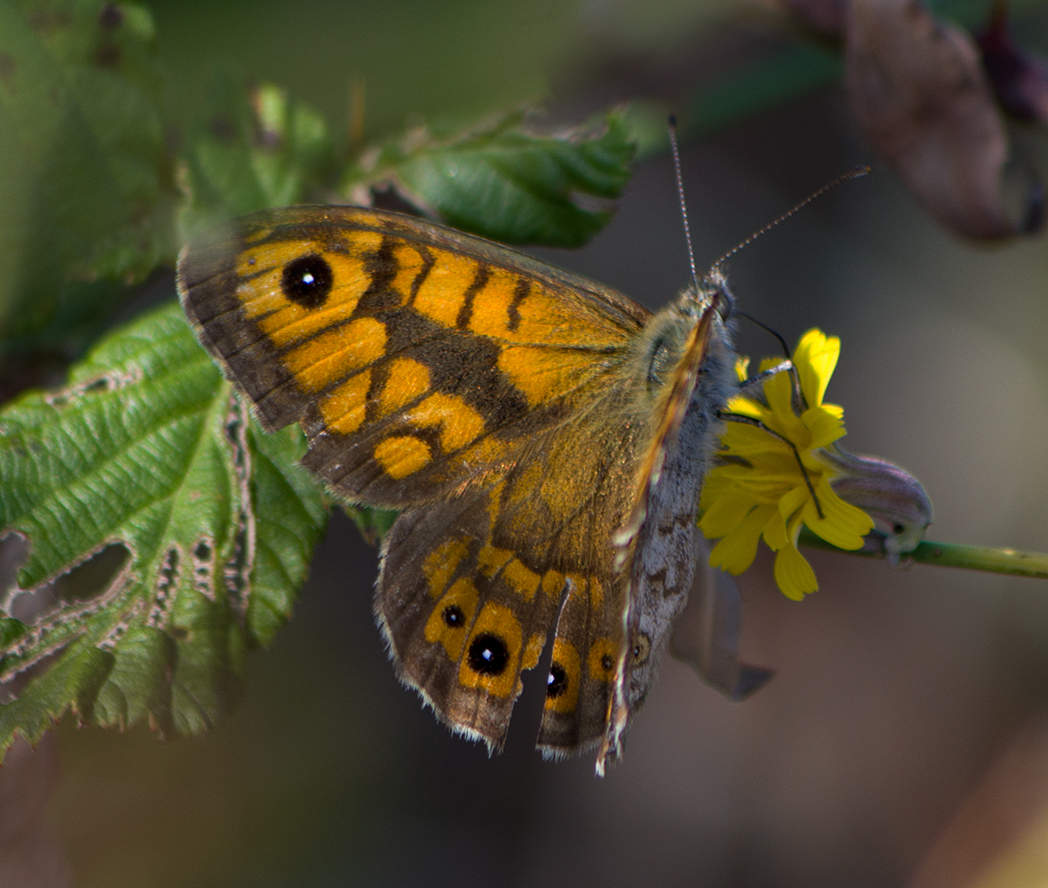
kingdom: Animalia
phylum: Arthropoda
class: Insecta
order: Lepidoptera
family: Nymphalidae
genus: Pararge
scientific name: Pararge Lasiommata megera
